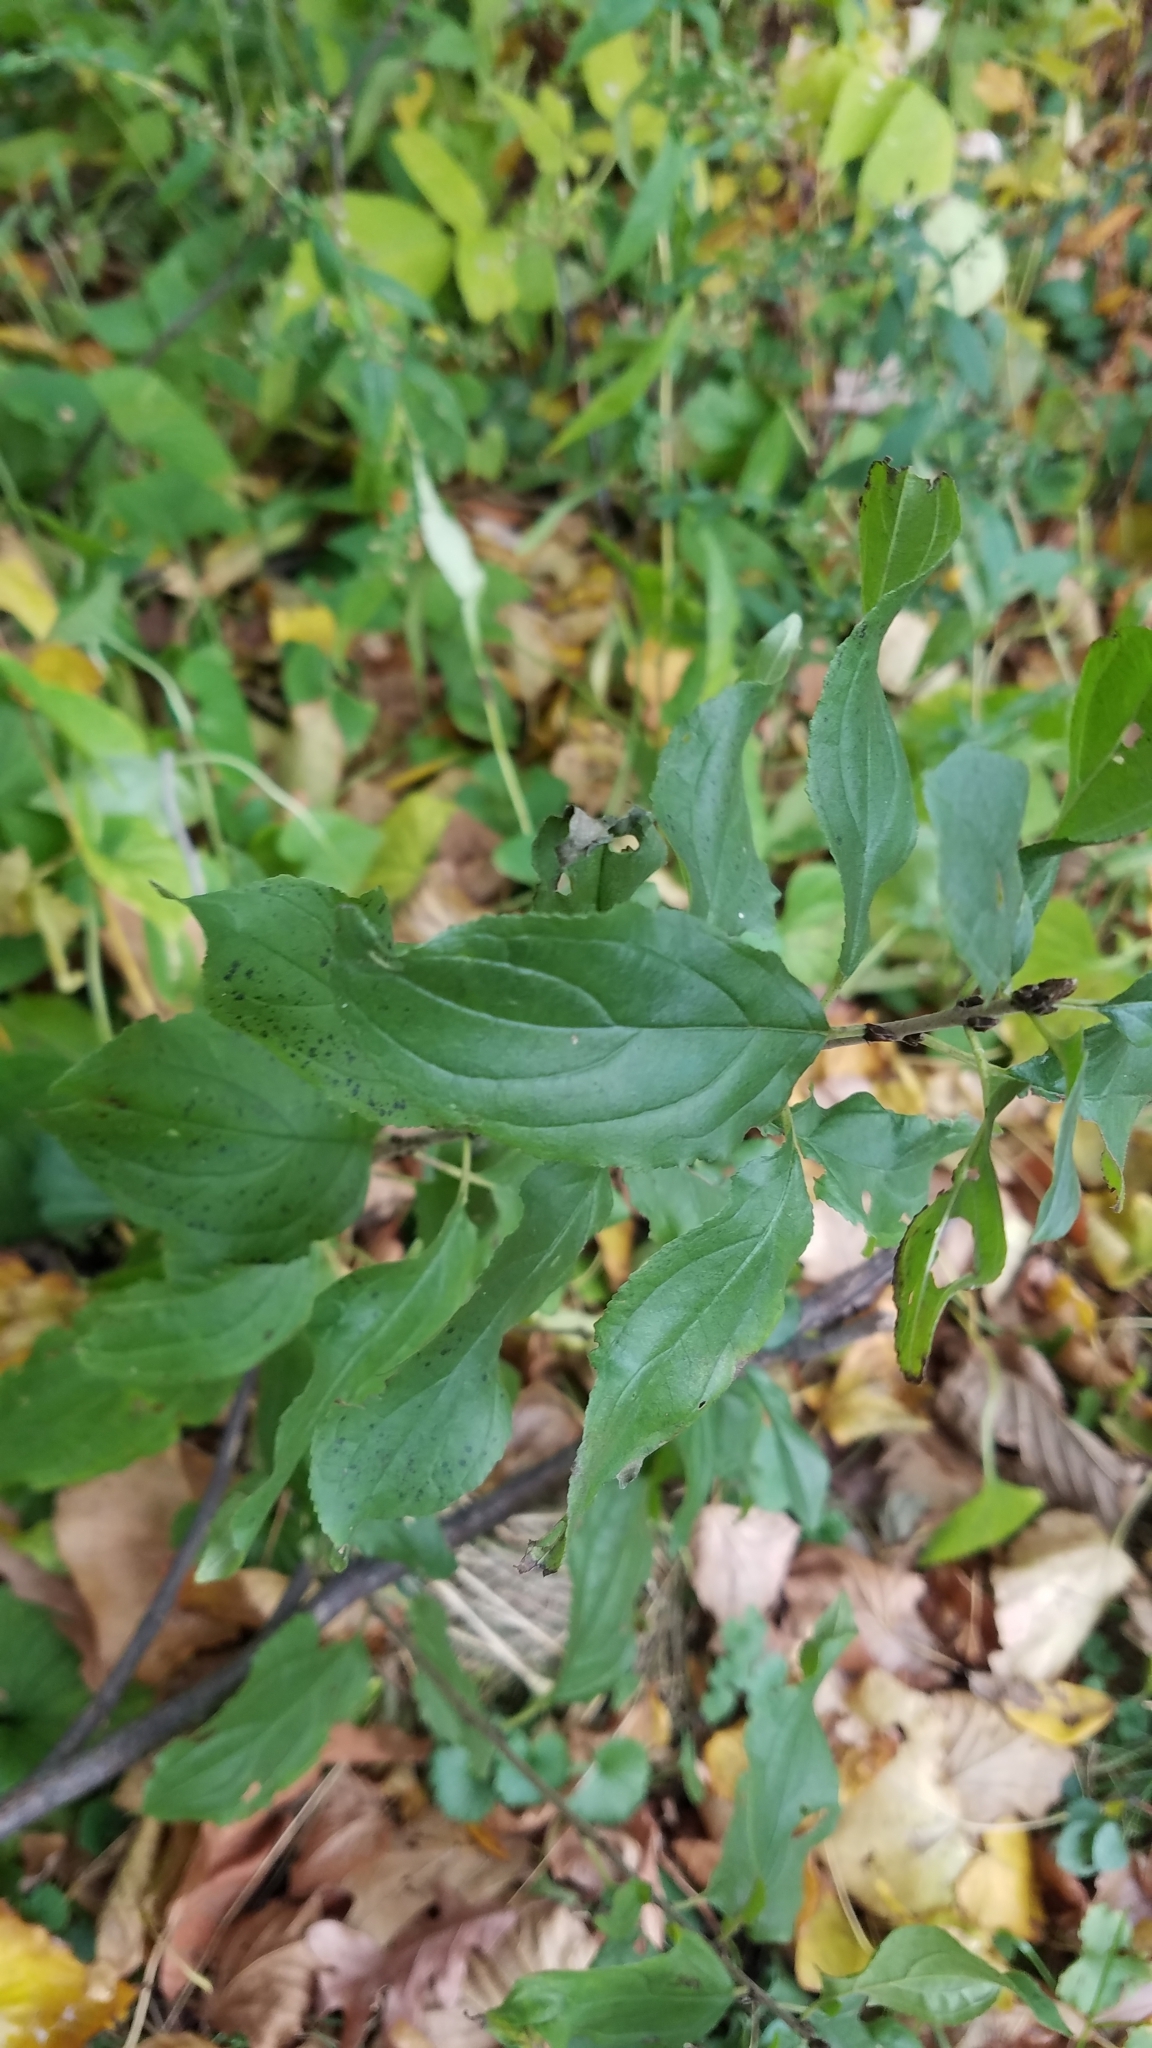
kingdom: Plantae
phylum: Tracheophyta
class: Magnoliopsida
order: Rosales
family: Rhamnaceae
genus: Rhamnus
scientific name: Rhamnus cathartica
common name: Common buckthorn
